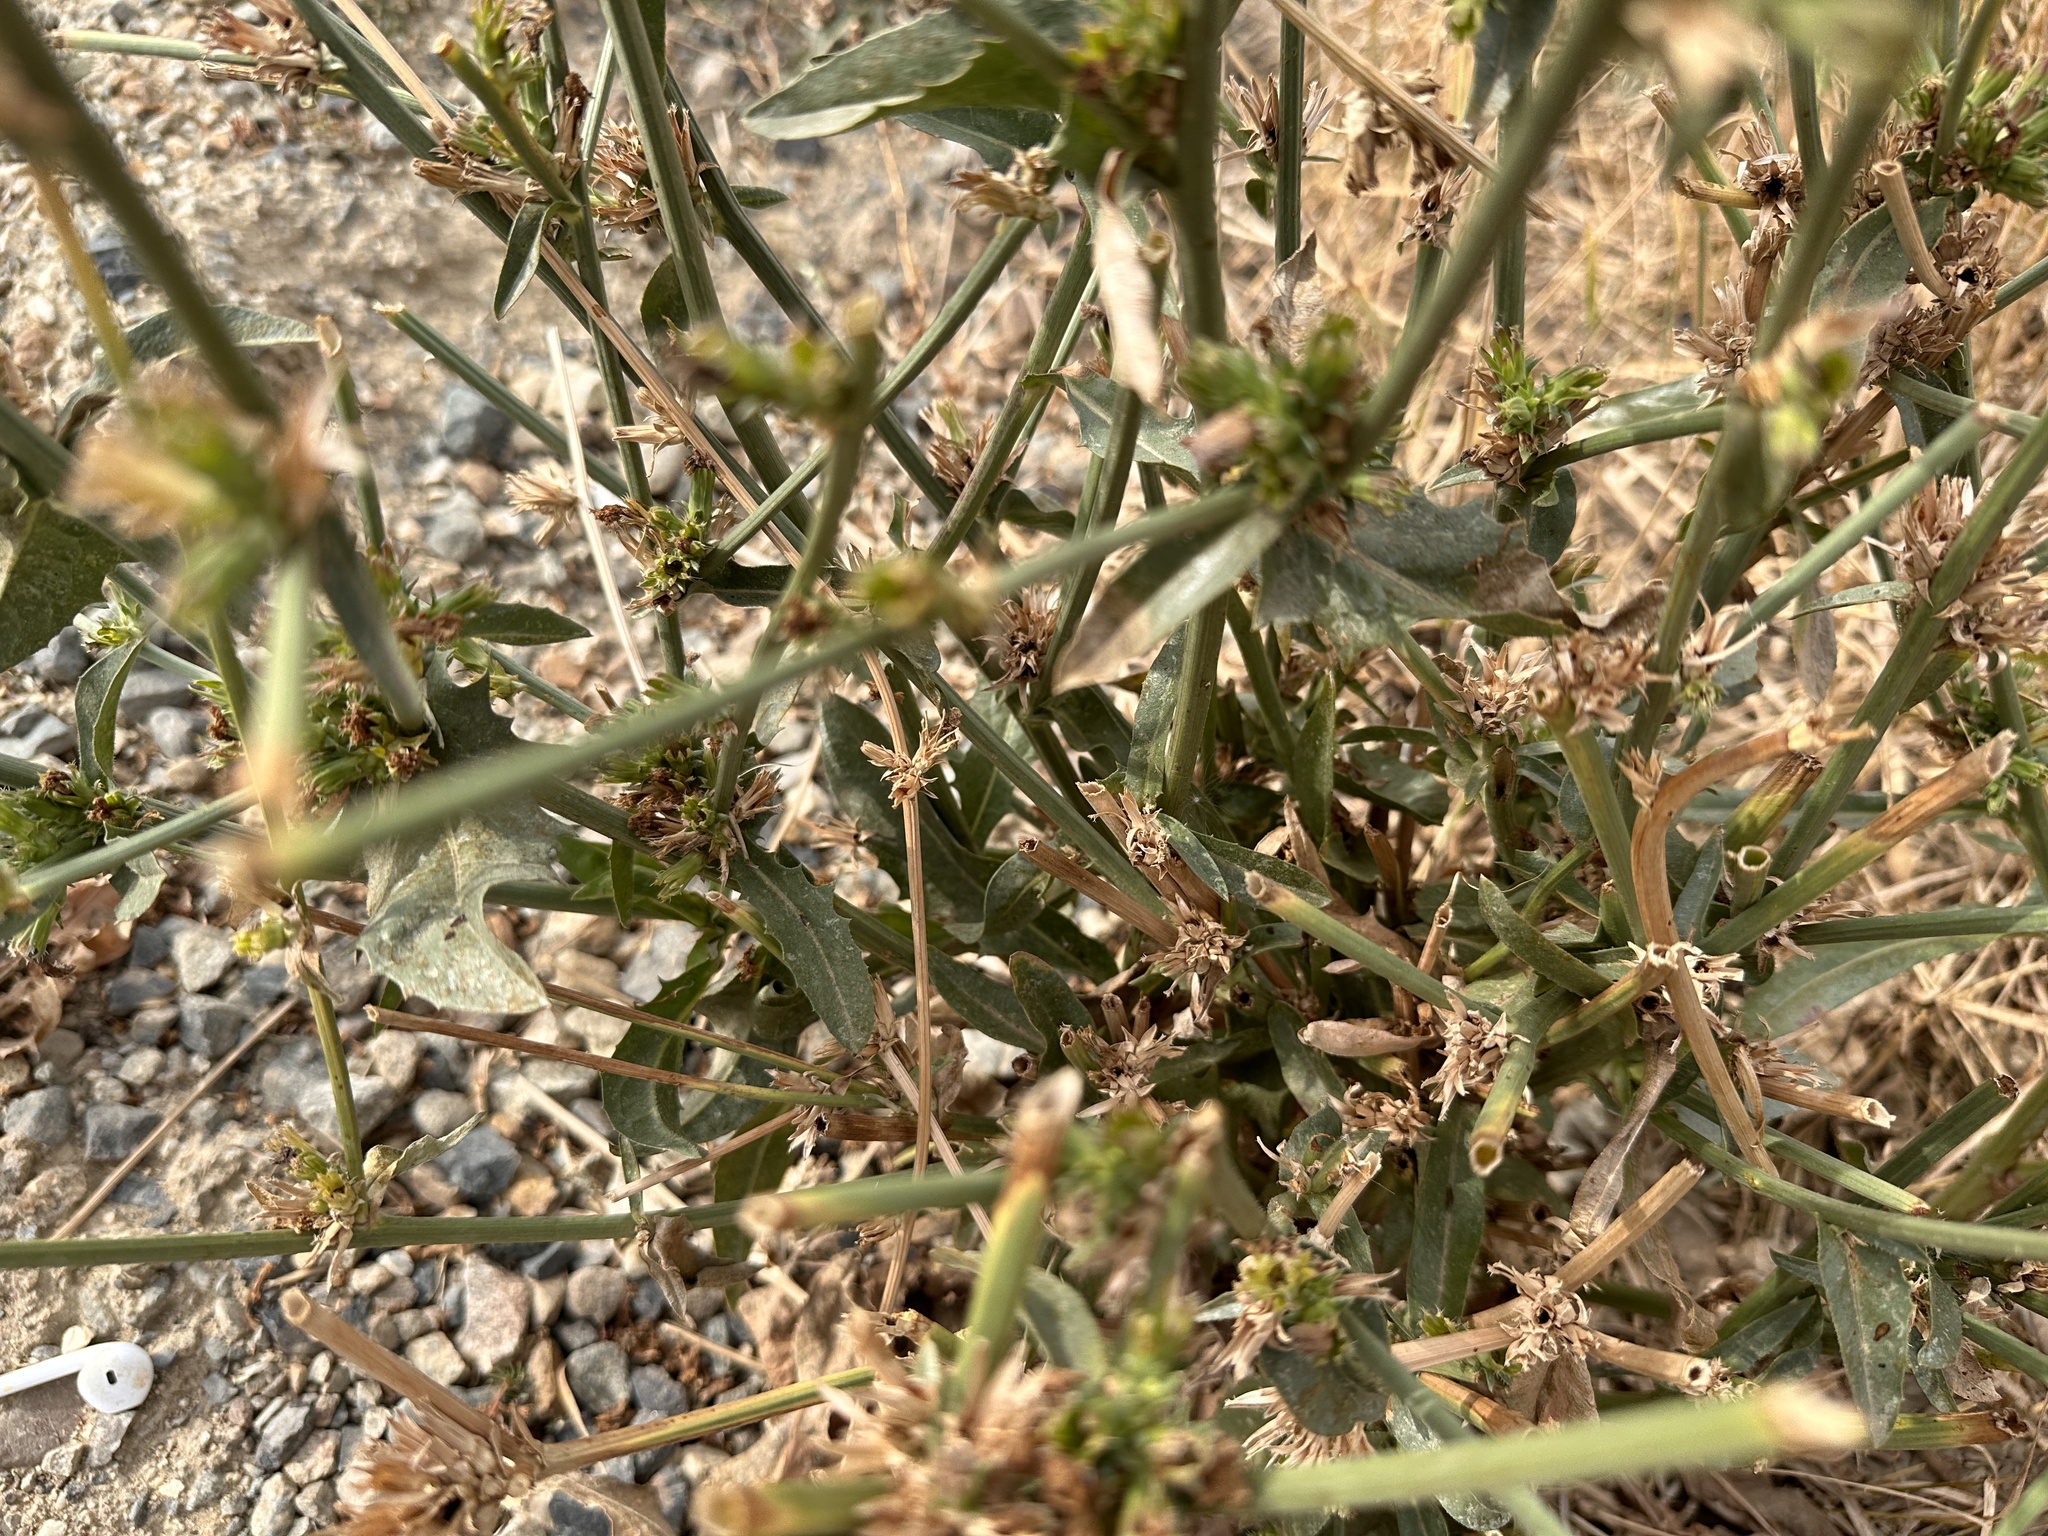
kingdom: Plantae
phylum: Tracheophyta
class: Magnoliopsida
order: Asterales
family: Asteraceae
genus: Cichorium
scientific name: Cichorium intybus
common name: Chicory
